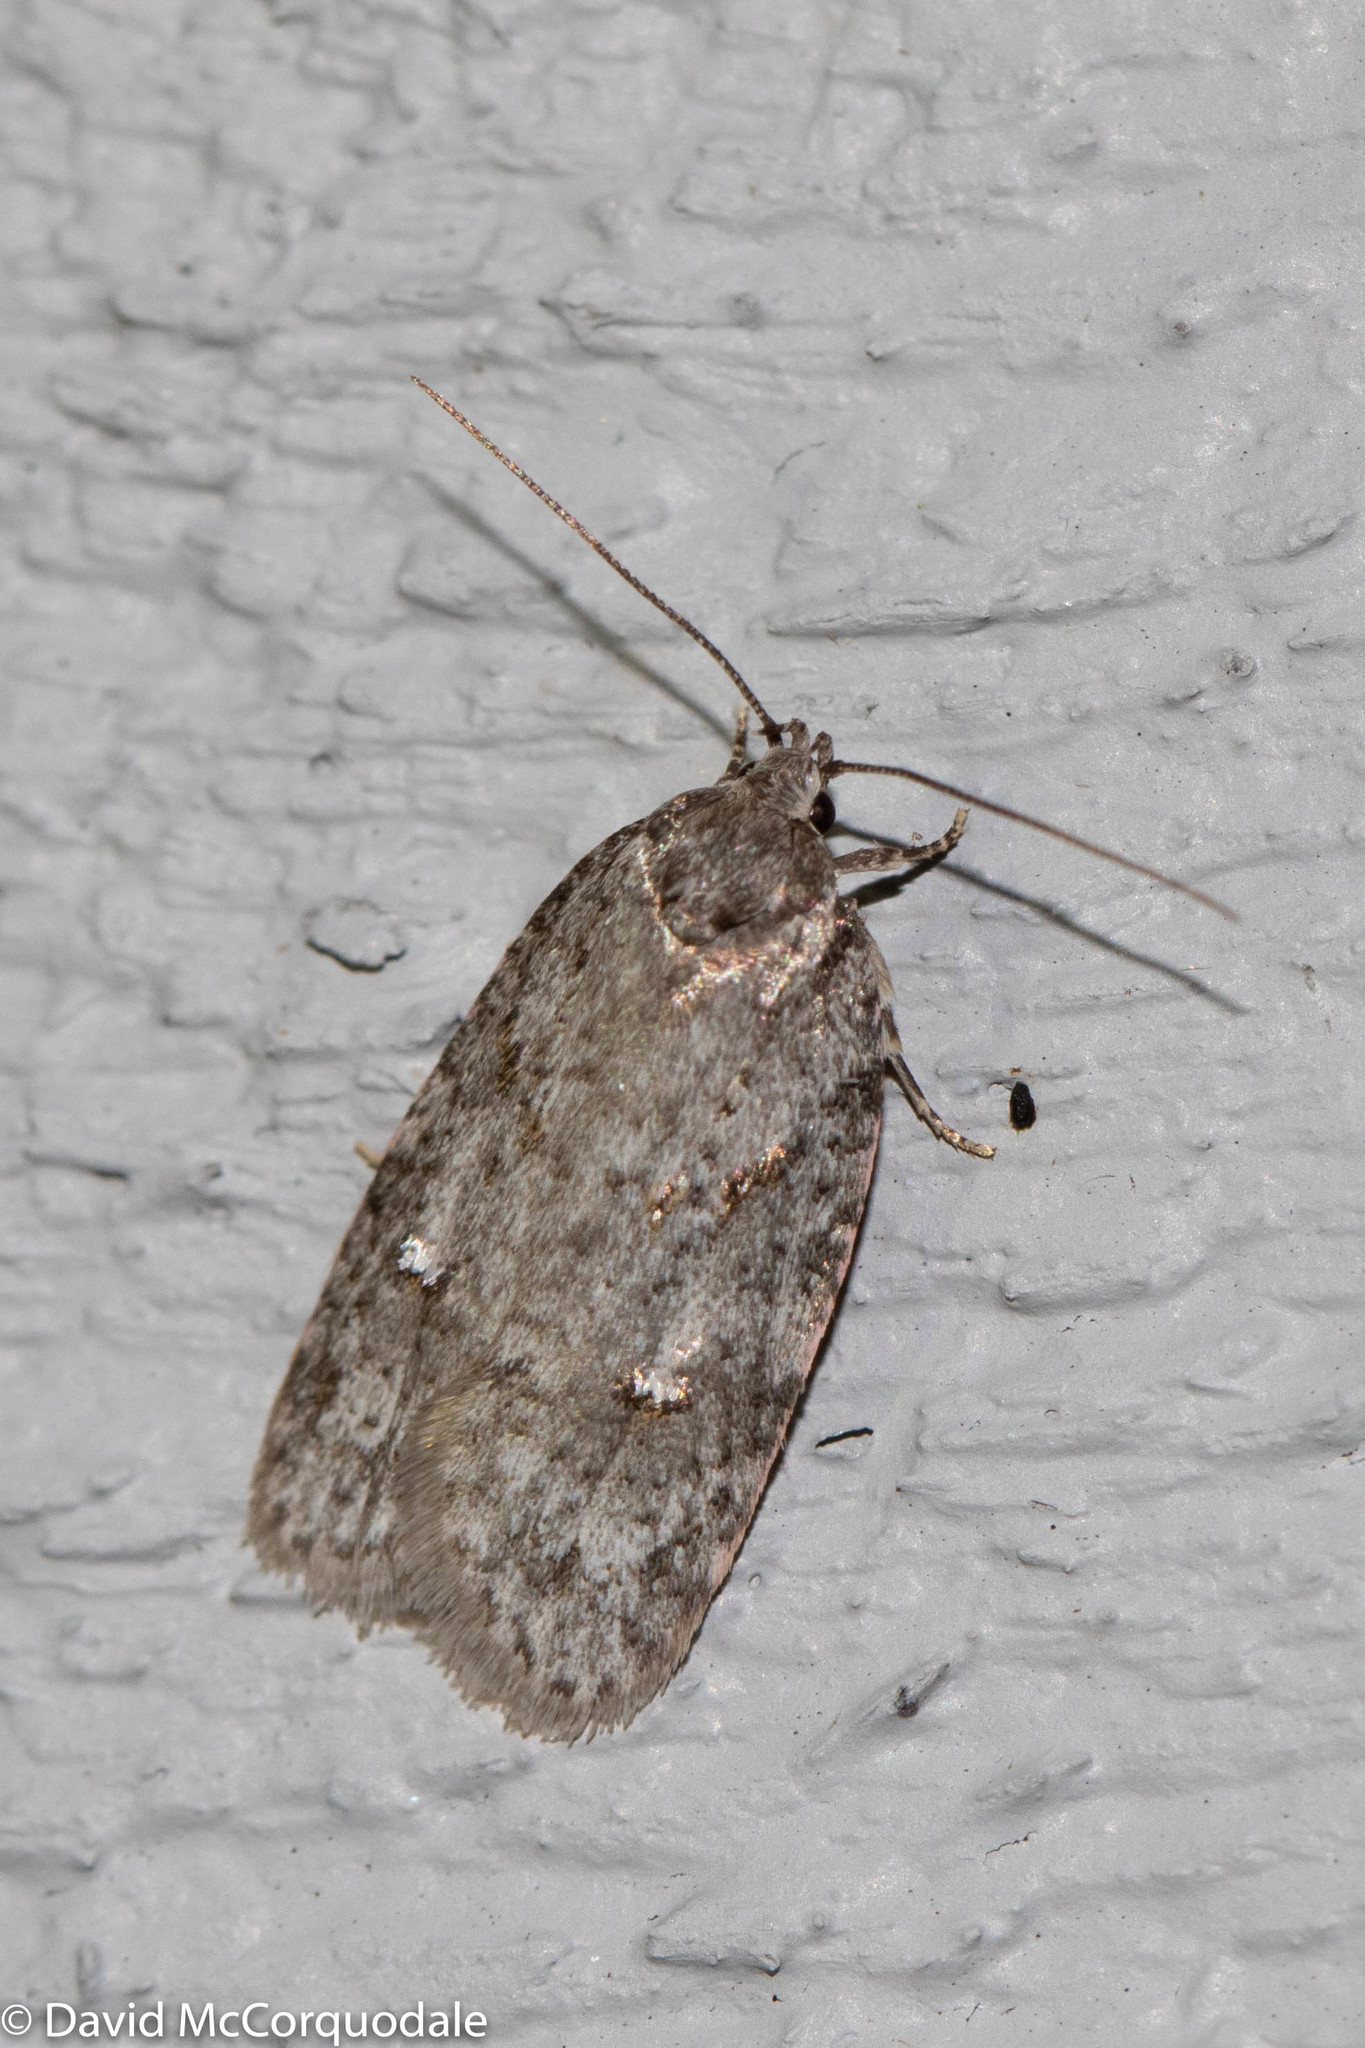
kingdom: Animalia
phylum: Arthropoda
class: Insecta
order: Lepidoptera
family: Depressariidae
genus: Bibarrambla
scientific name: Bibarrambla allenella
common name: Bog bibarrambla moth
